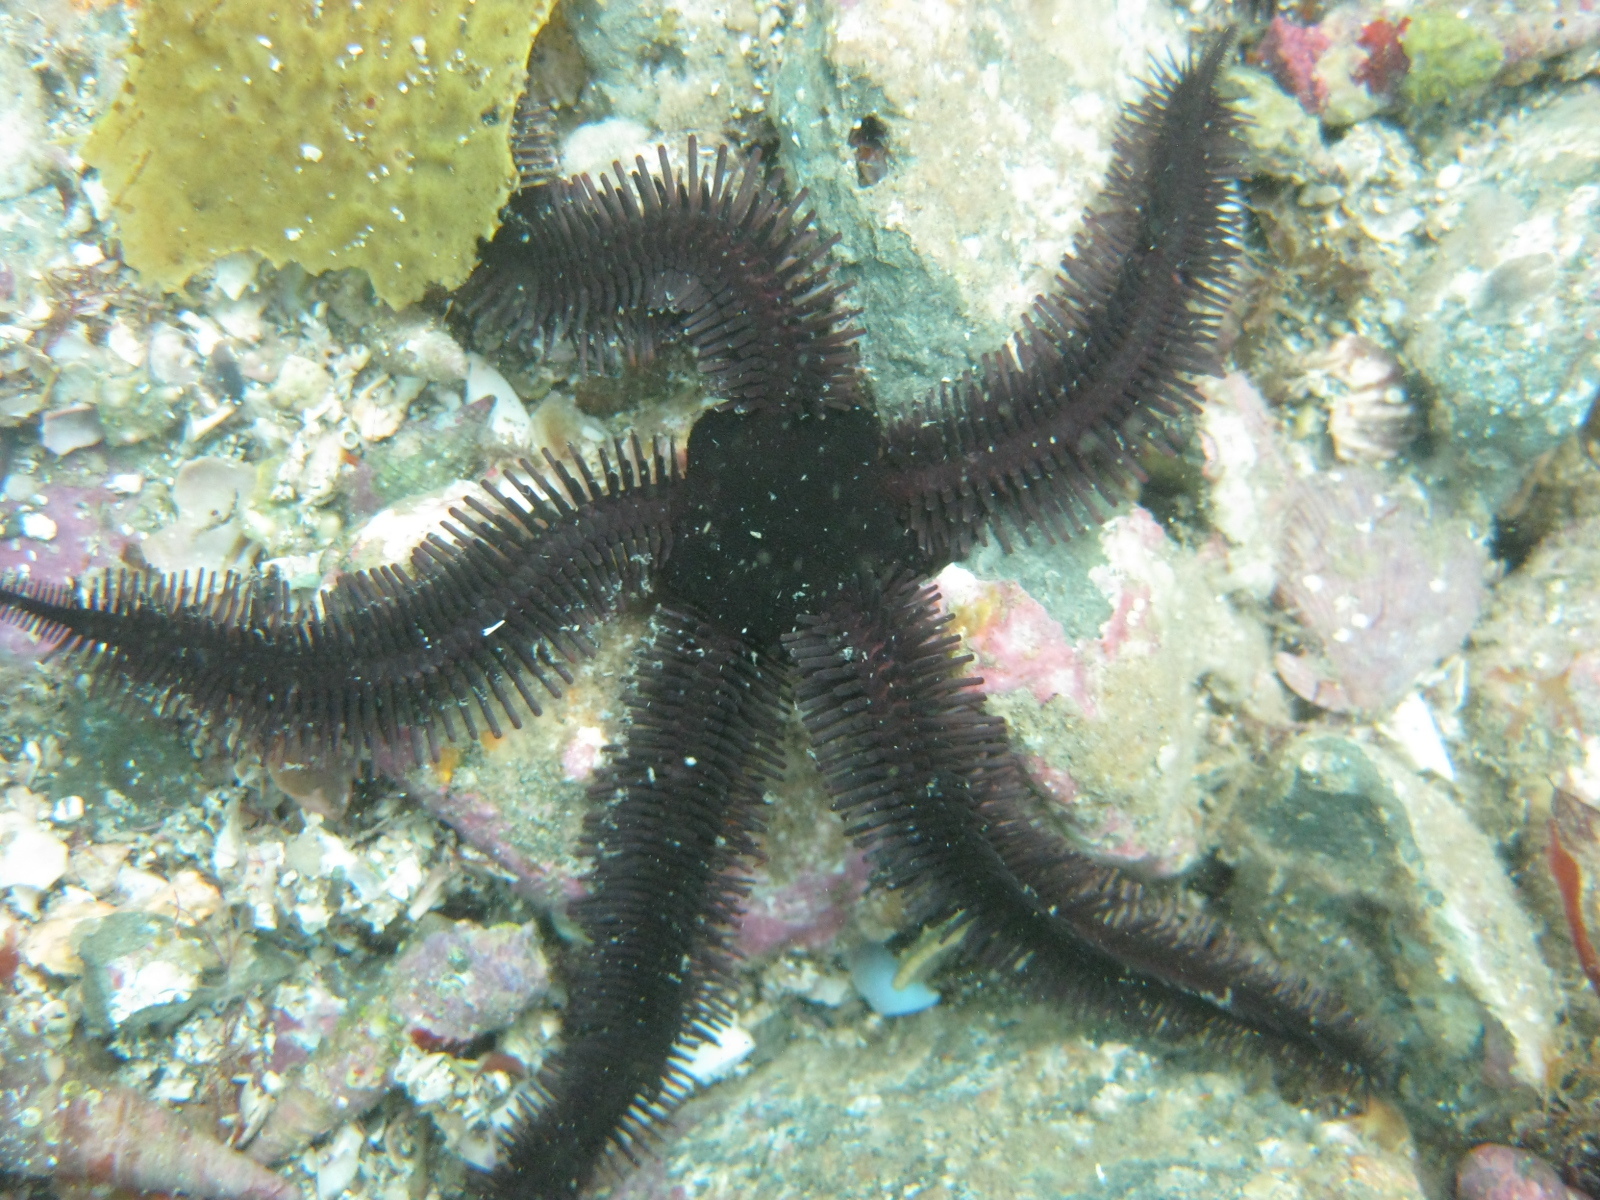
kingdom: Animalia
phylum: Echinodermata
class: Ophiuroidea
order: Ophiacanthida
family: Ophiopteridae
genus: Ophiopteris
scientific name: Ophiopteris antipodum
